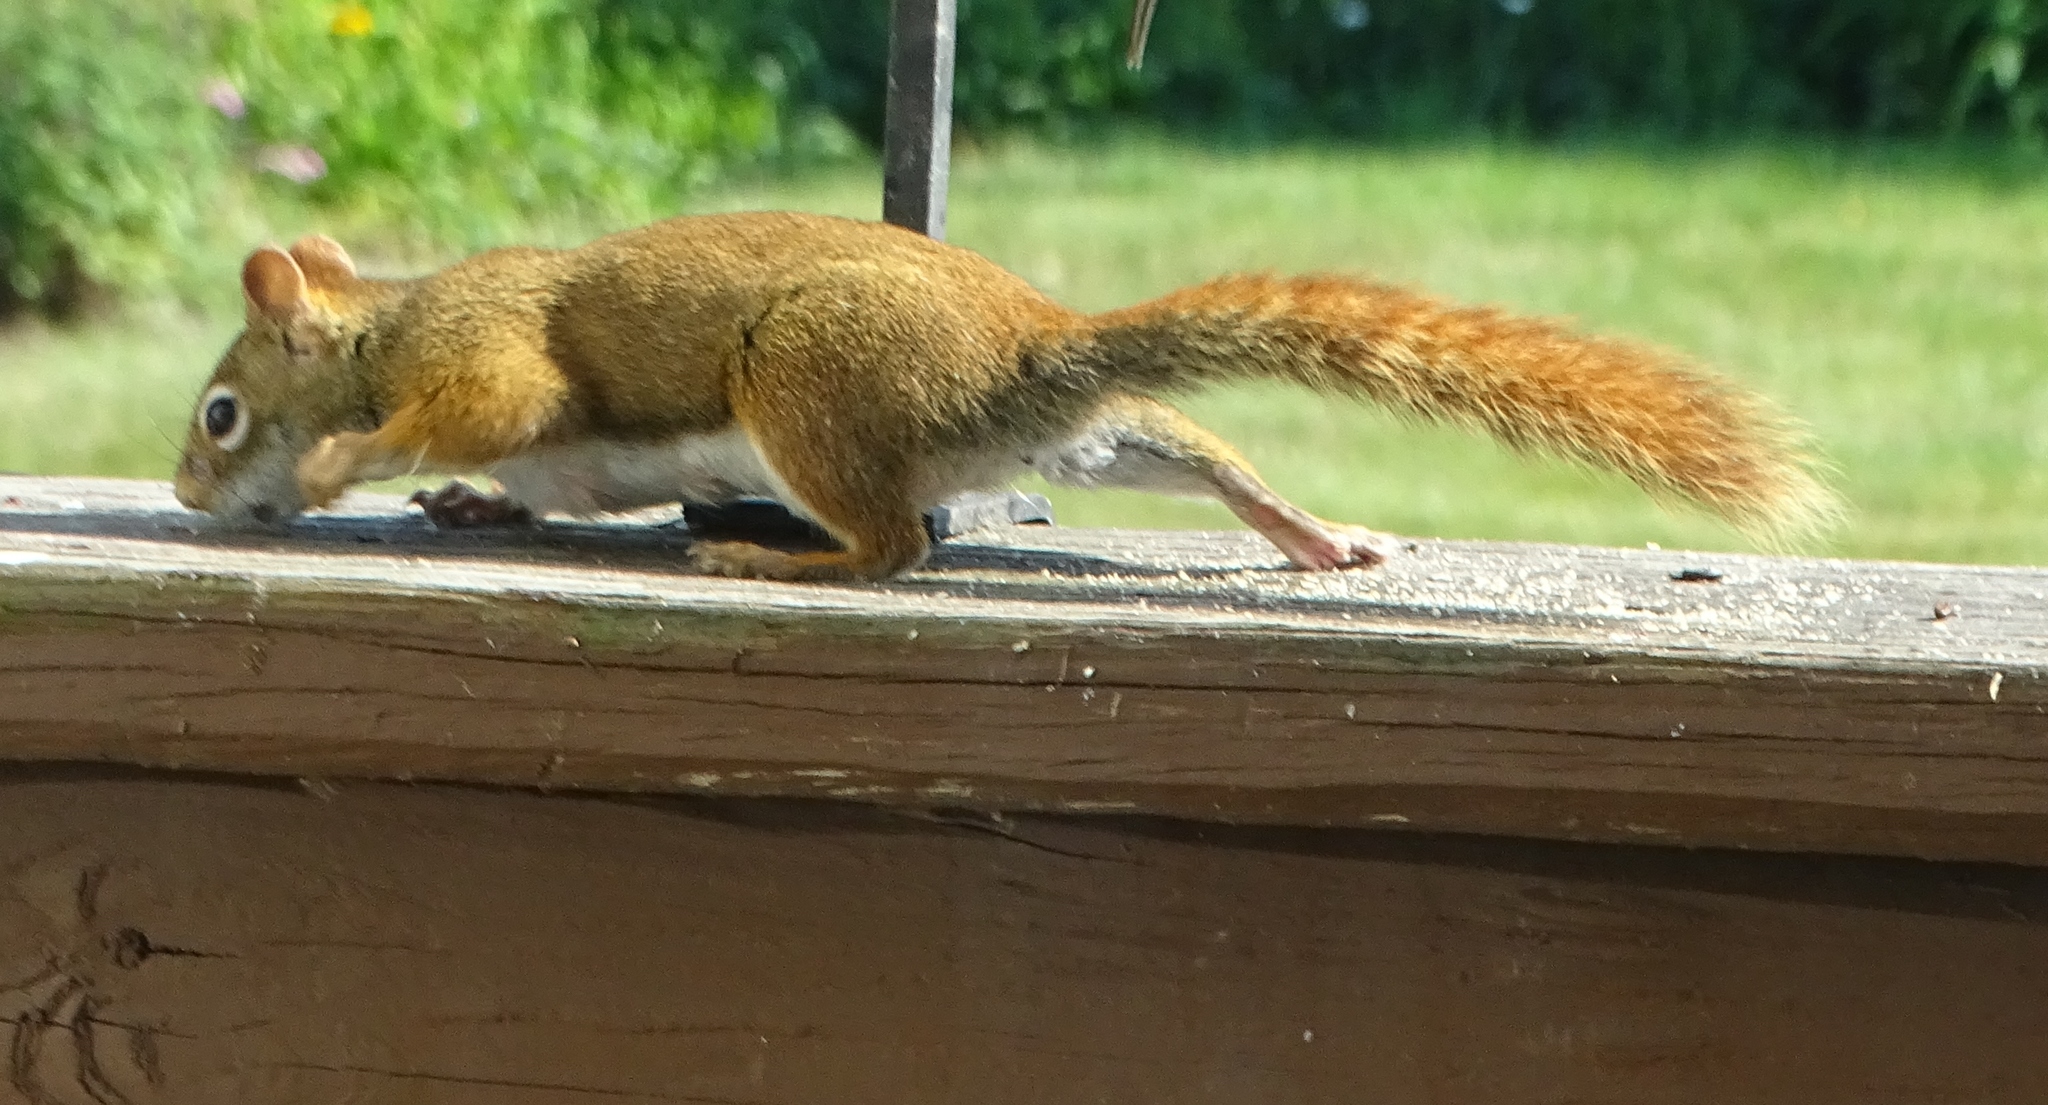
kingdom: Animalia
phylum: Chordata
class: Mammalia
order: Rodentia
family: Sciuridae
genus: Tamiasciurus
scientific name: Tamiasciurus hudsonicus
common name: Red squirrel
